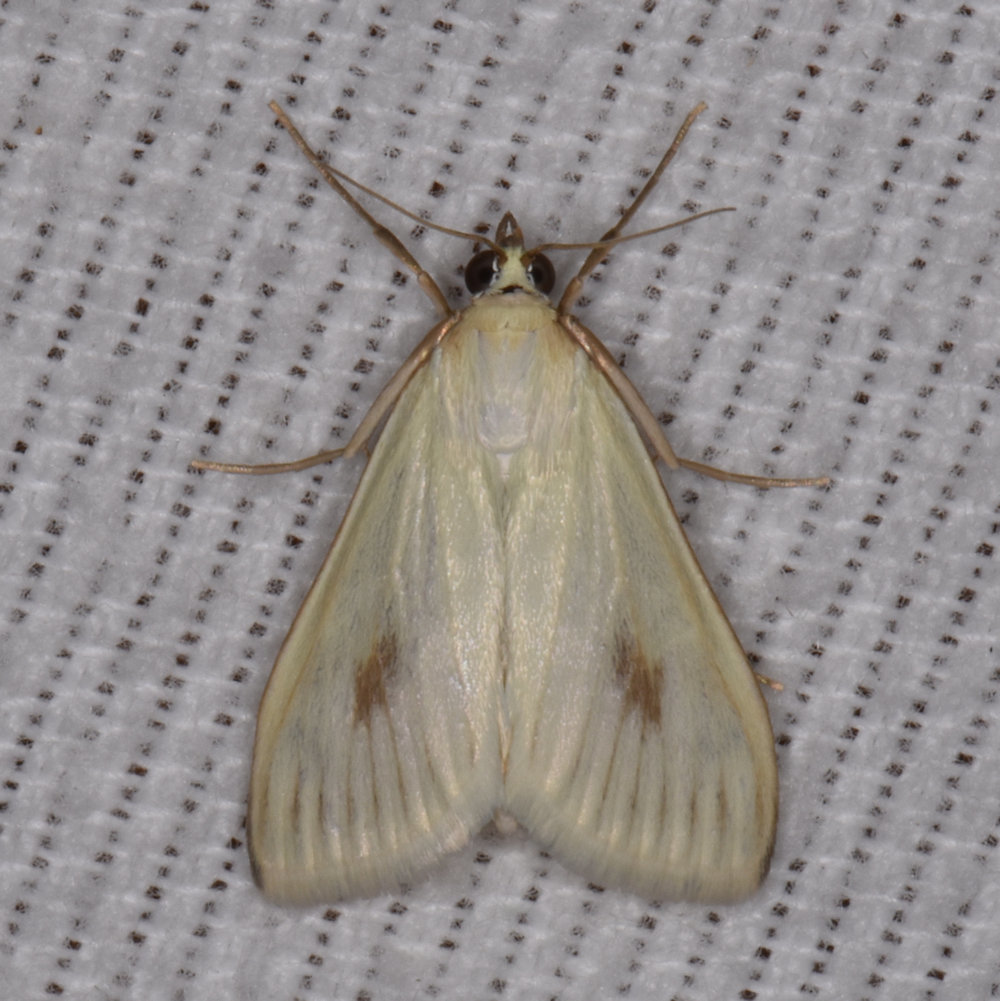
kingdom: Animalia
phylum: Arthropoda
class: Insecta
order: Lepidoptera
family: Crambidae
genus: Sitochroa
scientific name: Sitochroa palealis
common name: Greenish-yellow sitochroa moth
